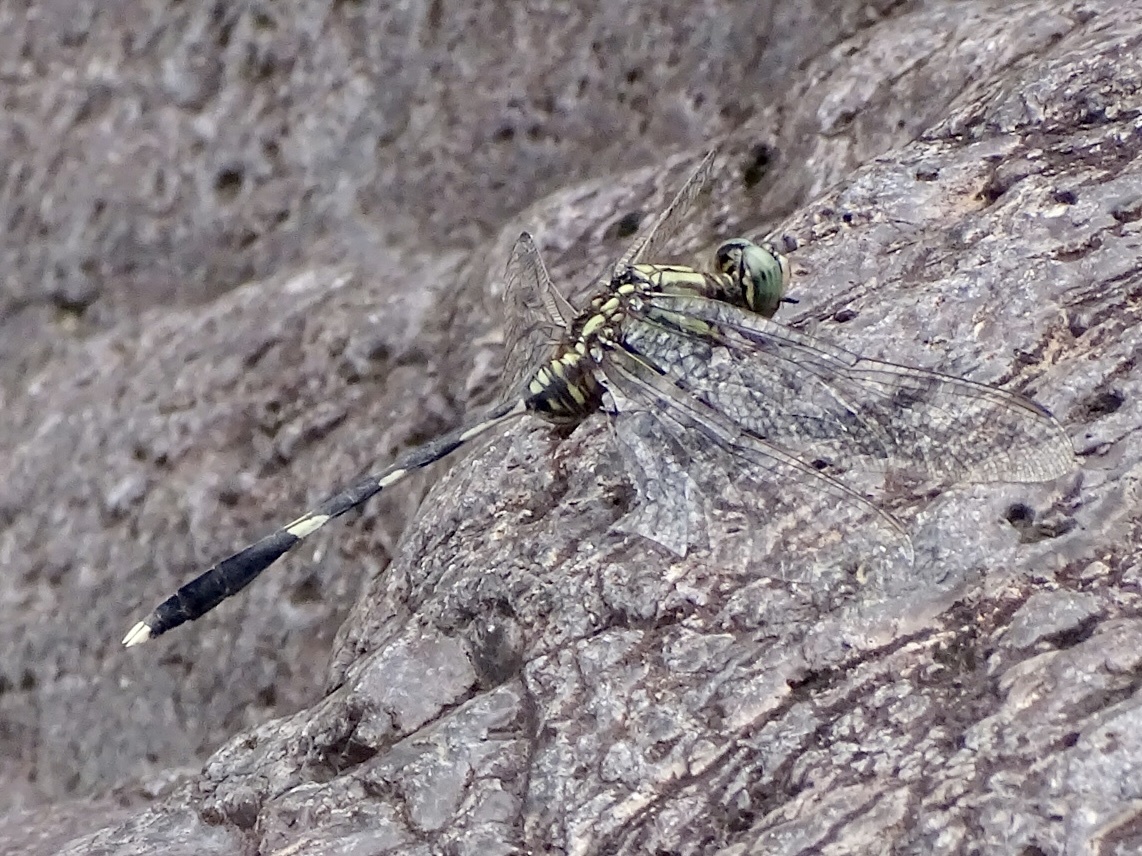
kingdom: Animalia
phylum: Arthropoda
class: Insecta
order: Odonata
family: Libellulidae
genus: Orthetrum
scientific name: Orthetrum sabina
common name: Slender skimmer
